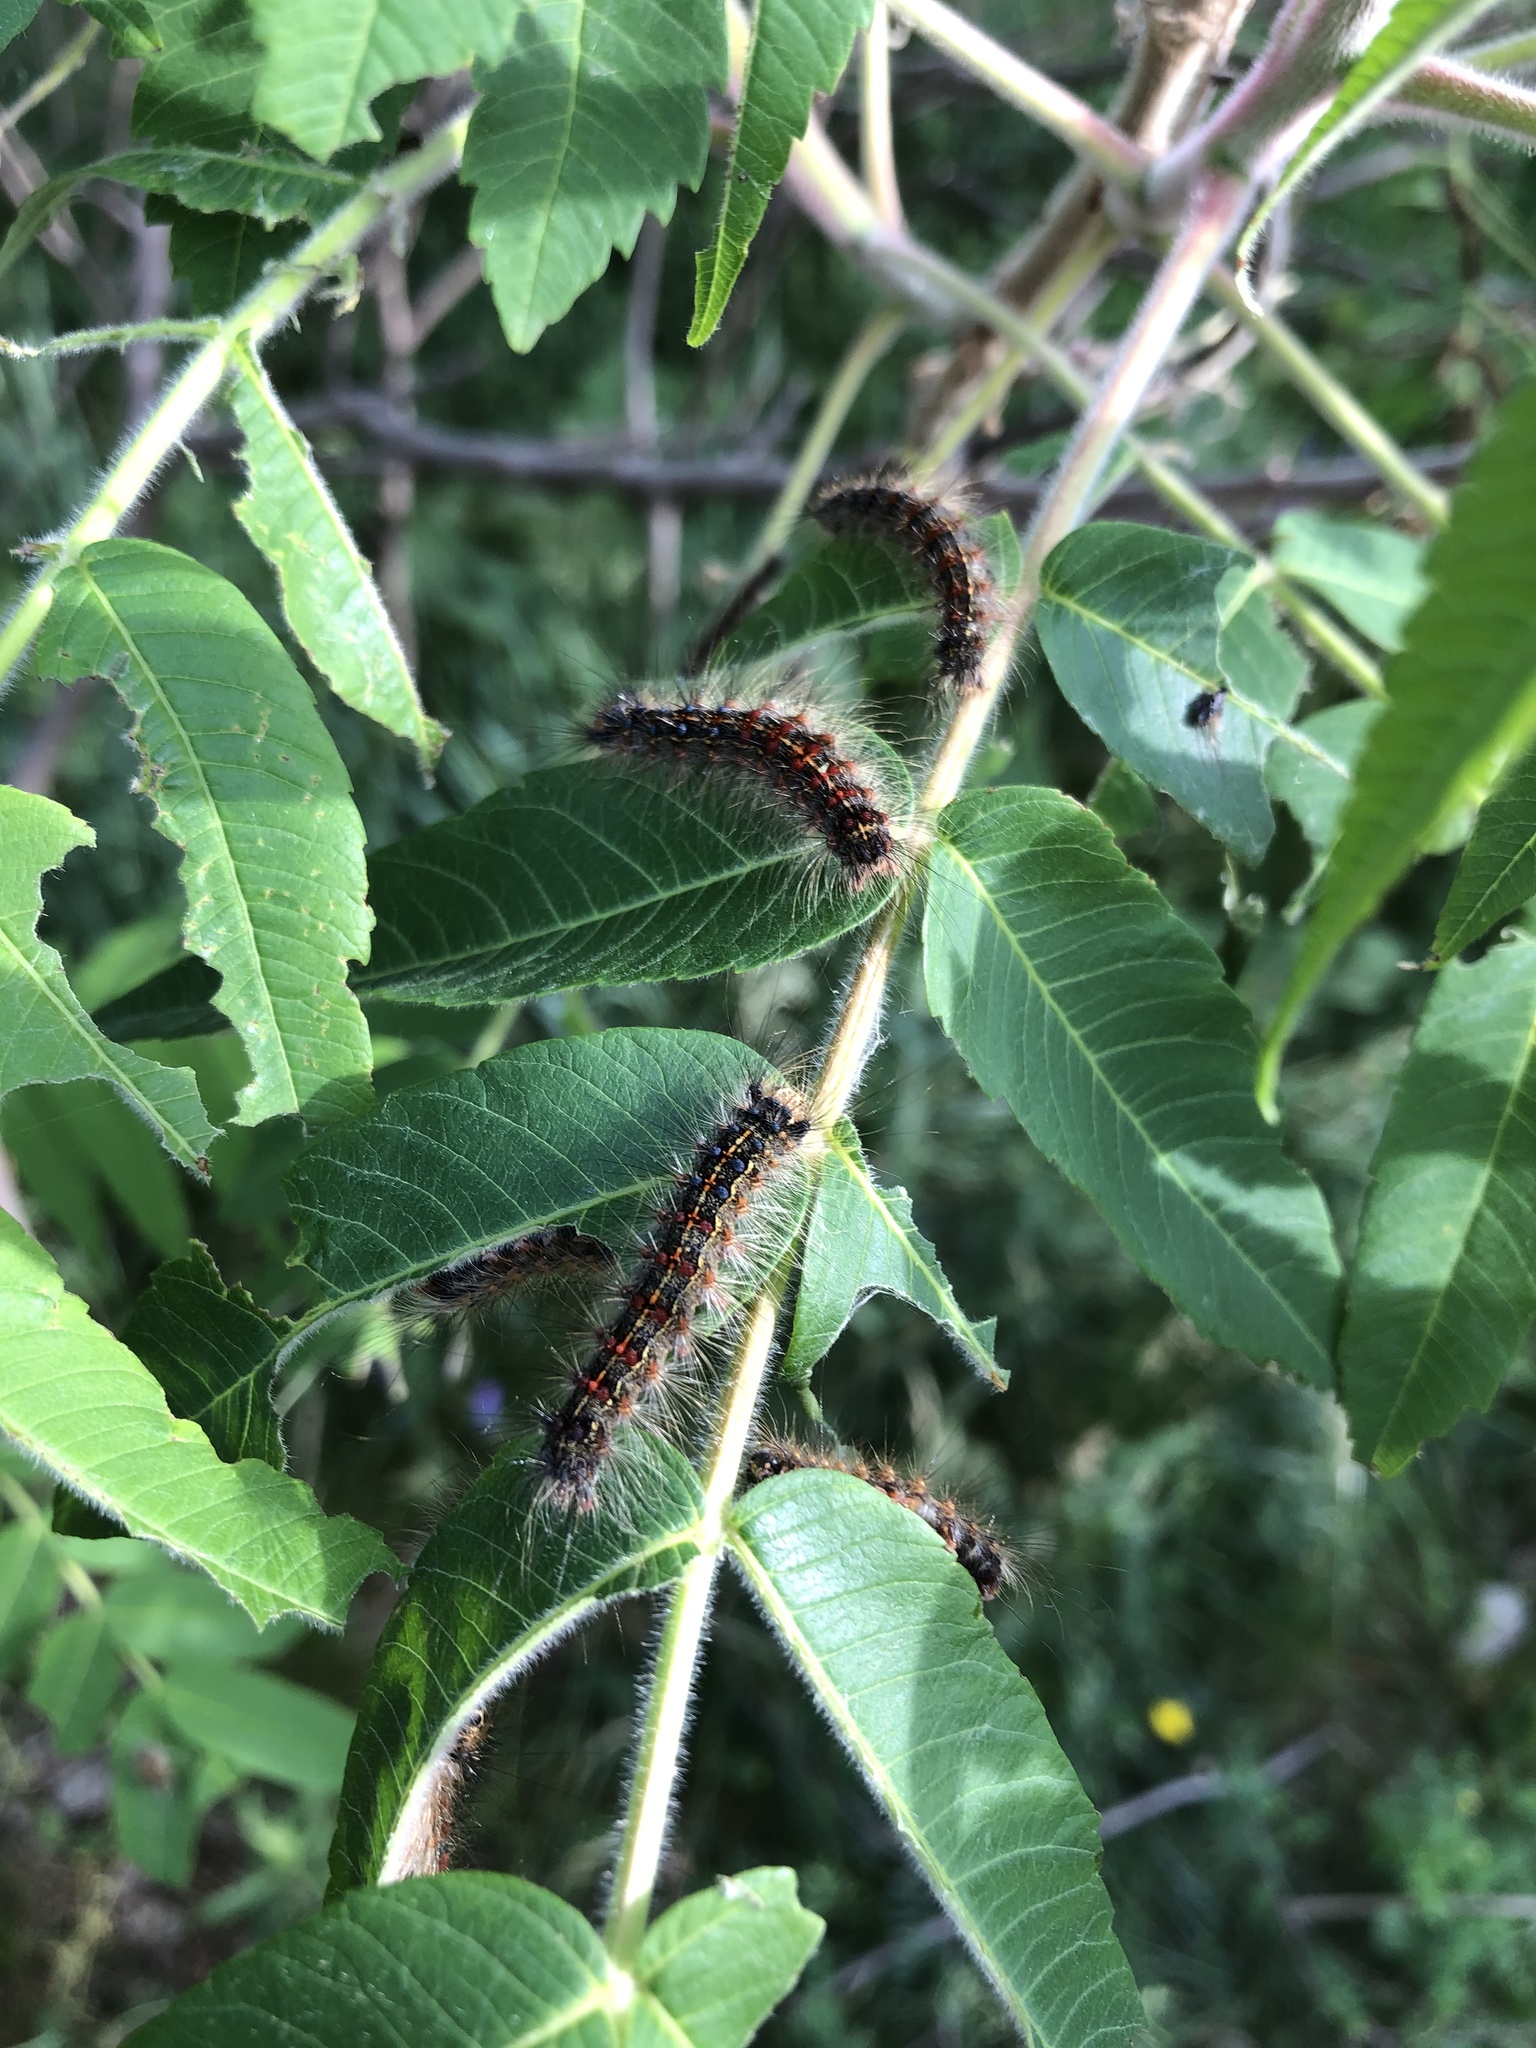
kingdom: Animalia
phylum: Arthropoda
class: Insecta
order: Lepidoptera
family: Erebidae
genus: Lymantria
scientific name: Lymantria dispar
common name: Gypsy moth
